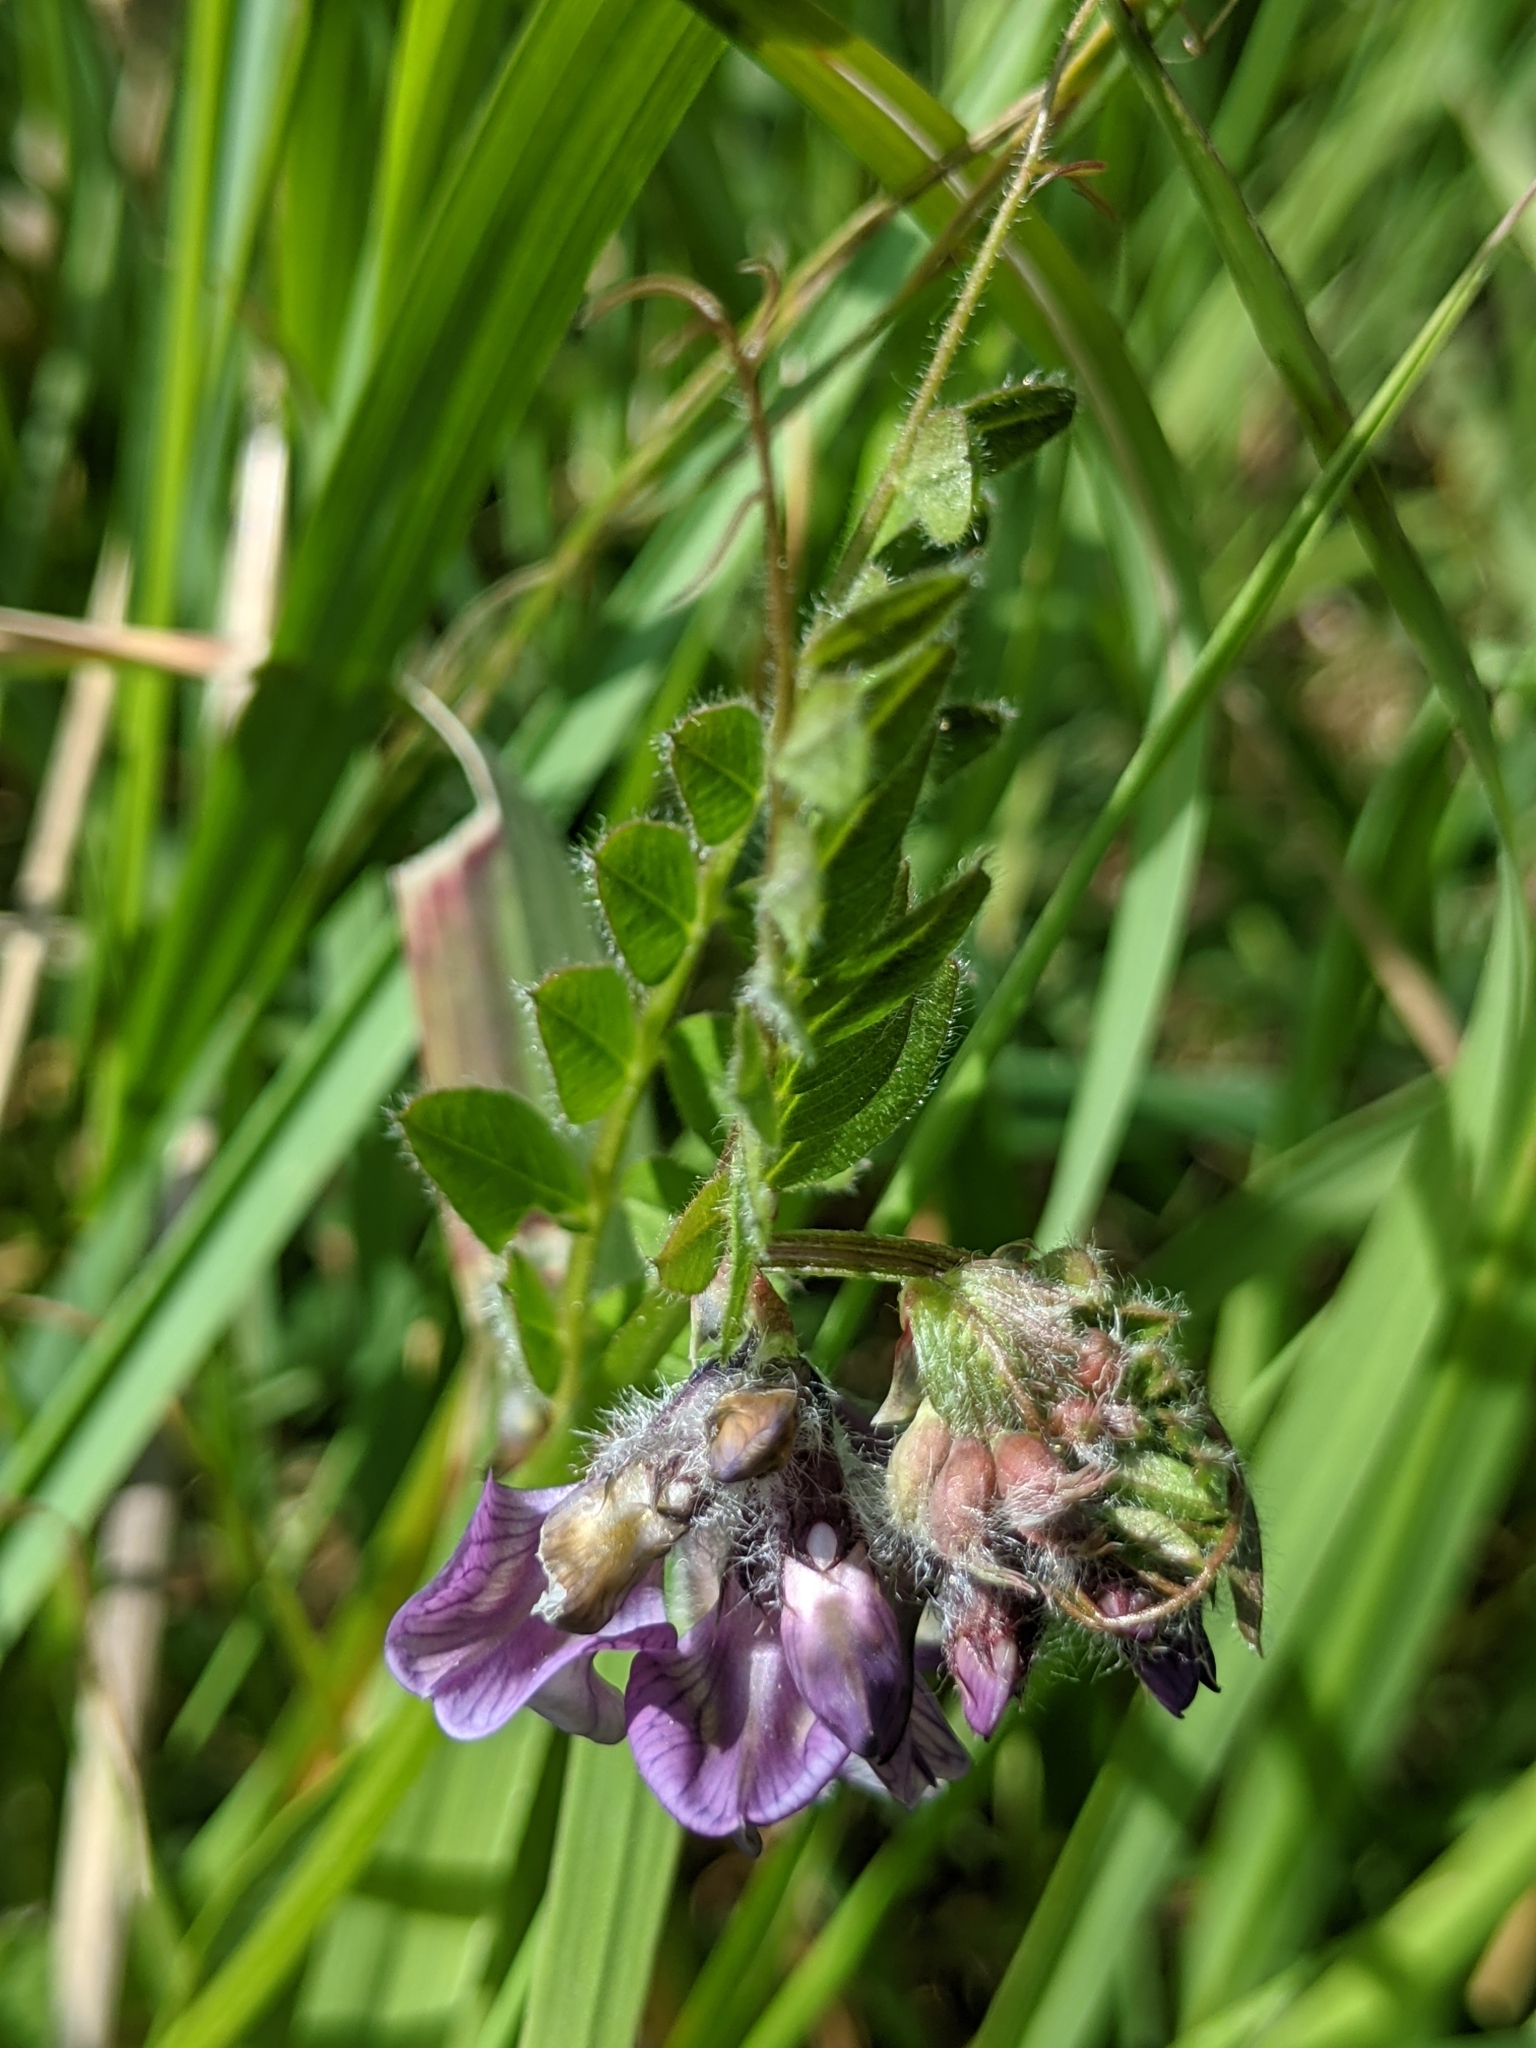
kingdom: Plantae
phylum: Tracheophyta
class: Magnoliopsida
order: Fabales
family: Fabaceae
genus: Vicia
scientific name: Vicia sepium
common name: Bush vetch
